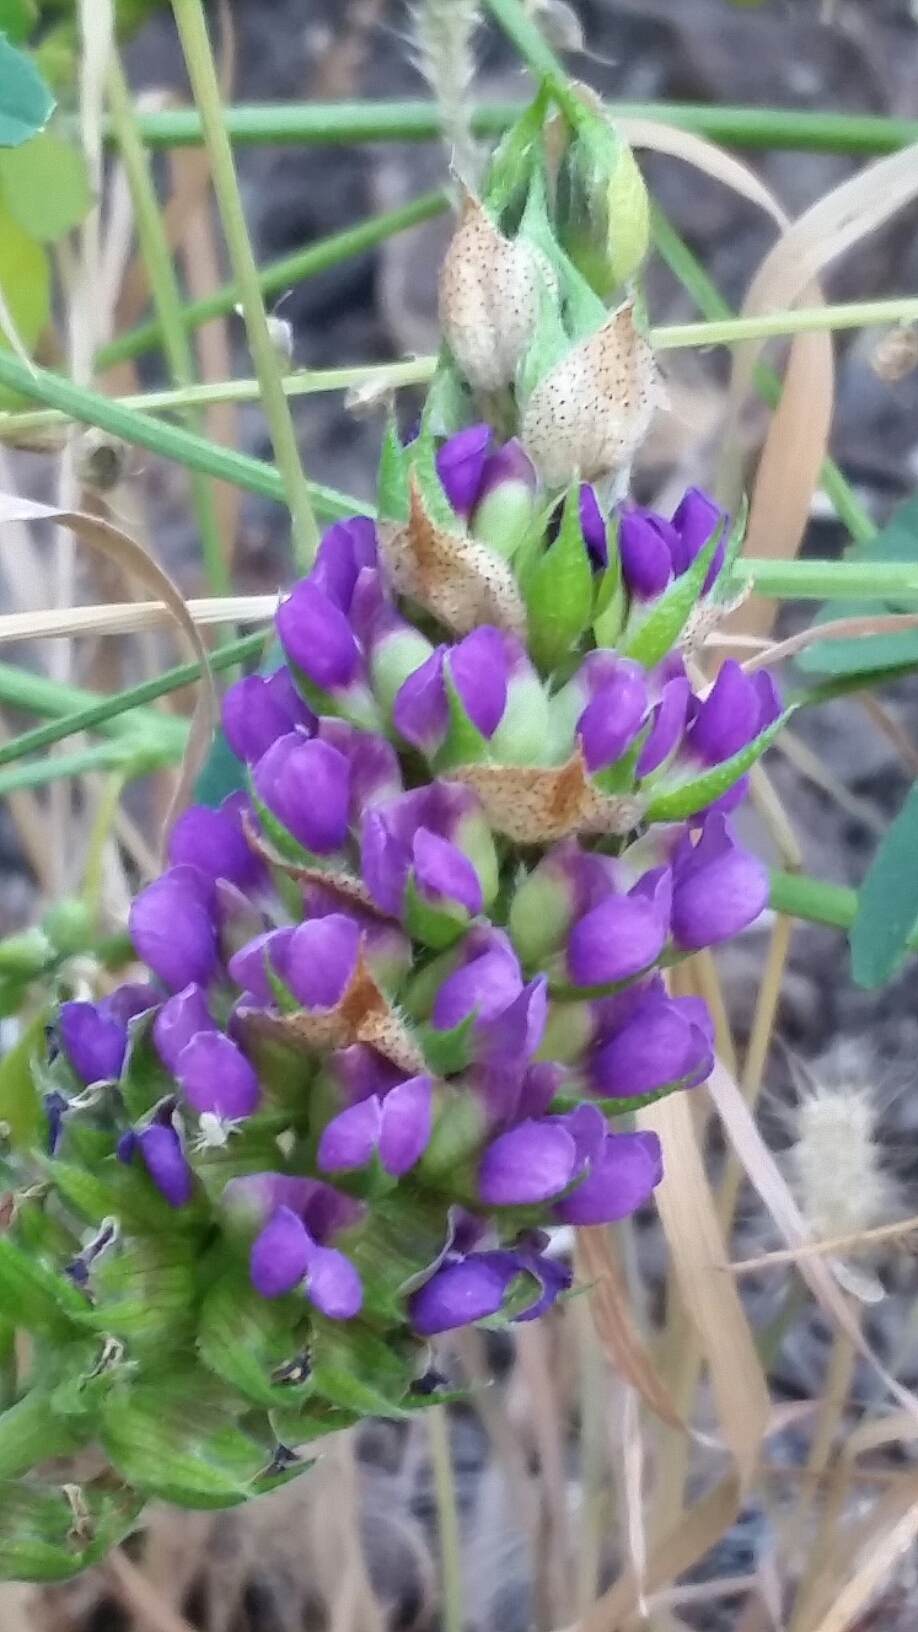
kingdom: Plantae
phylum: Tracheophyta
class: Magnoliopsida
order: Fabales
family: Fabaceae
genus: Hoita
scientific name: Hoita macrostachya
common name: Leatherroot
